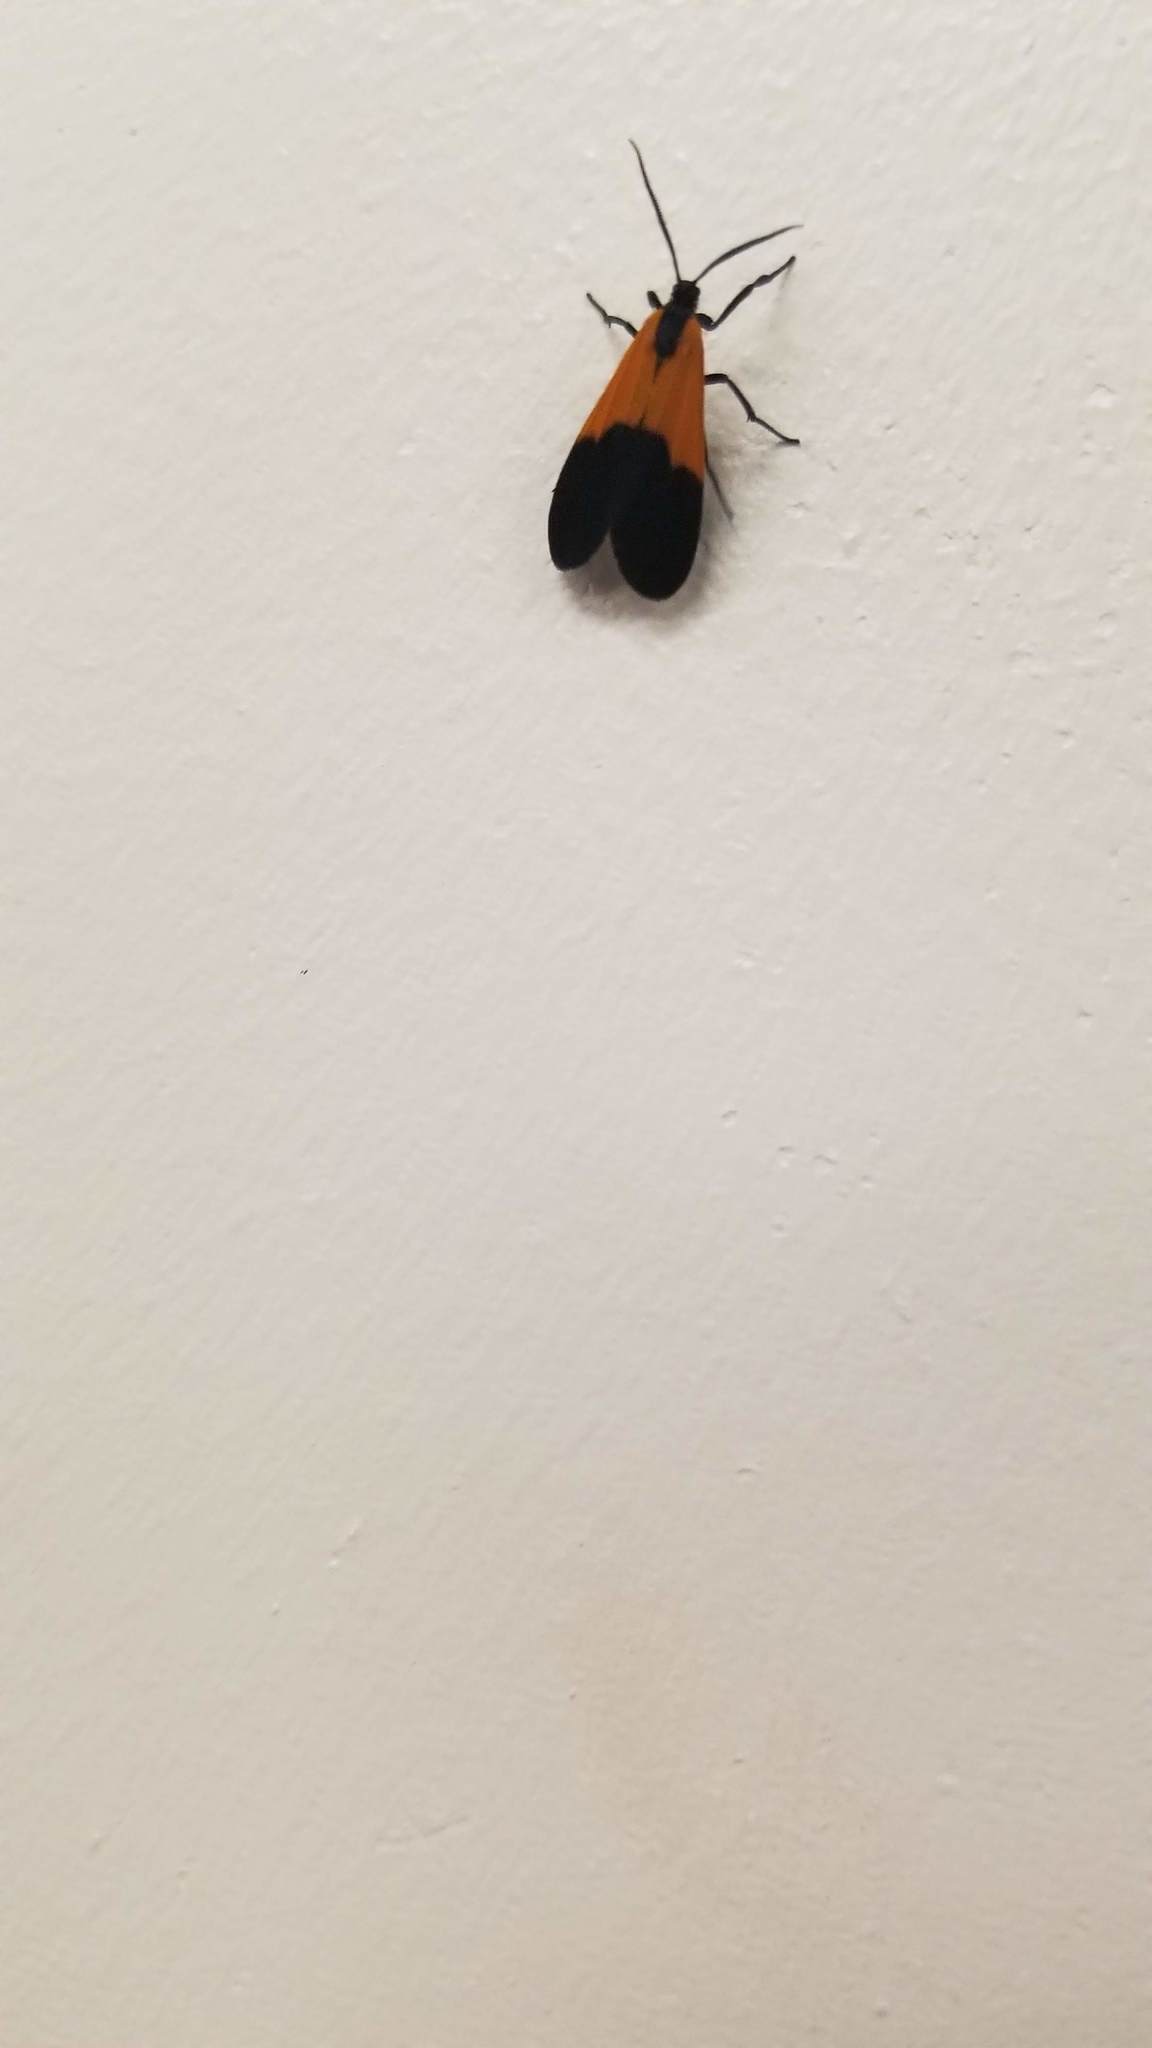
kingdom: Animalia
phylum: Arthropoda
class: Insecta
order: Lepidoptera
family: Erebidae
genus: Lycomorpha
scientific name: Lycomorpha pholus
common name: Black-and-yellow lichen moth
